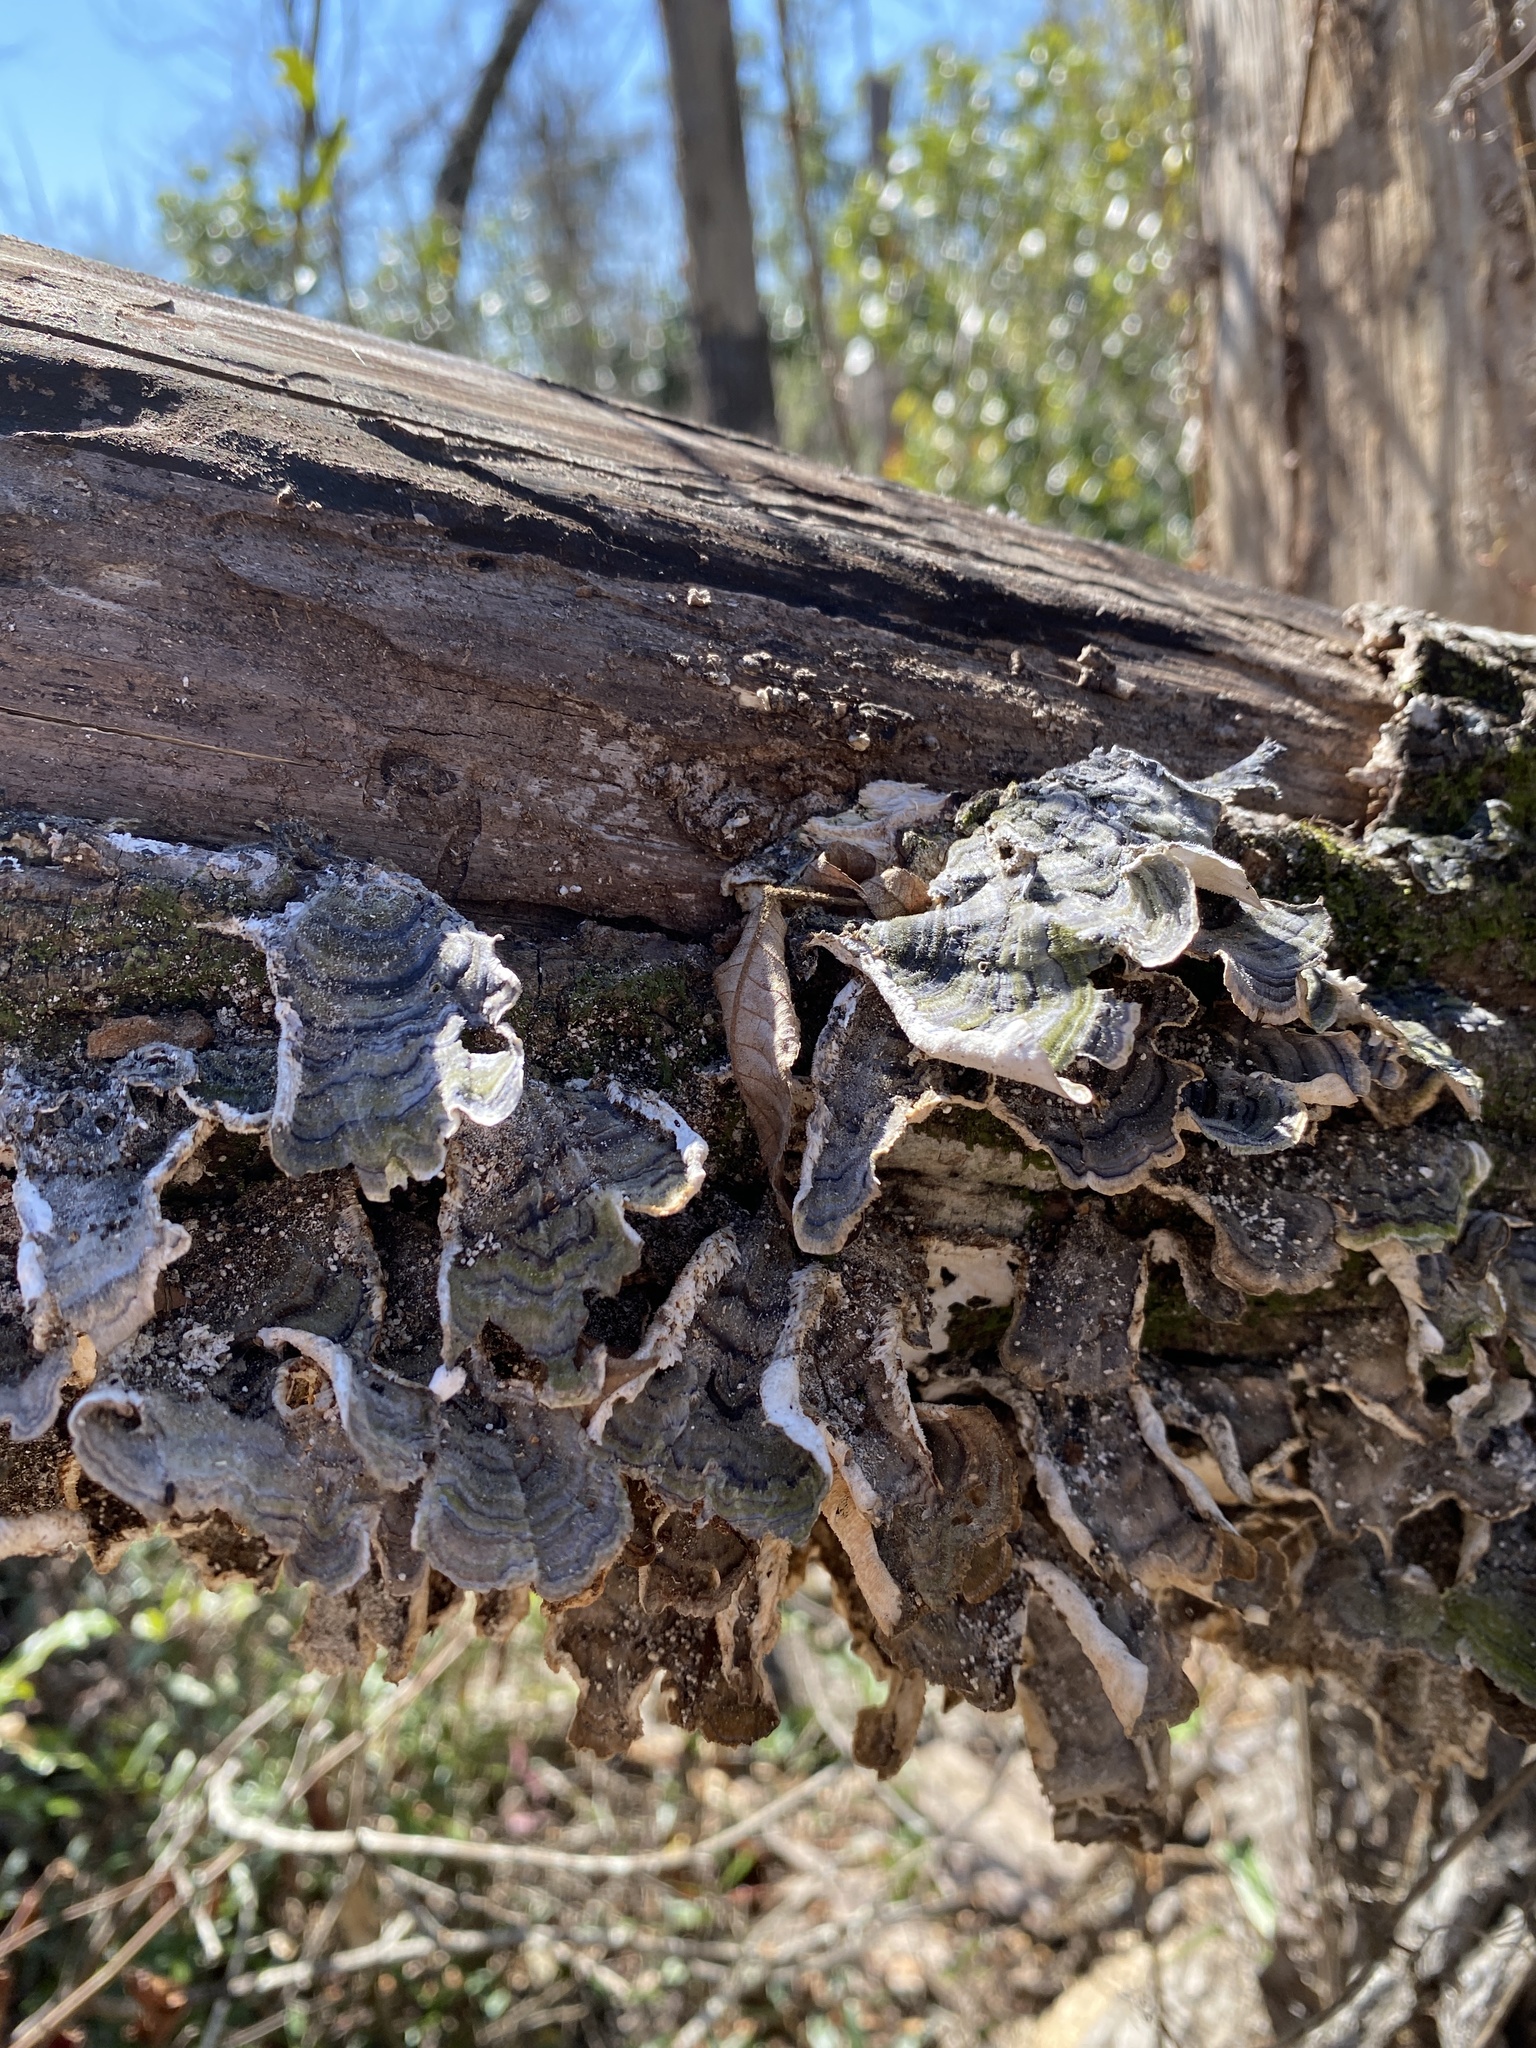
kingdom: Fungi
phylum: Basidiomycota
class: Agaricomycetes
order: Polyporales
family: Polyporaceae
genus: Trametes
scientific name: Trametes versicolor
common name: Turkeytail
